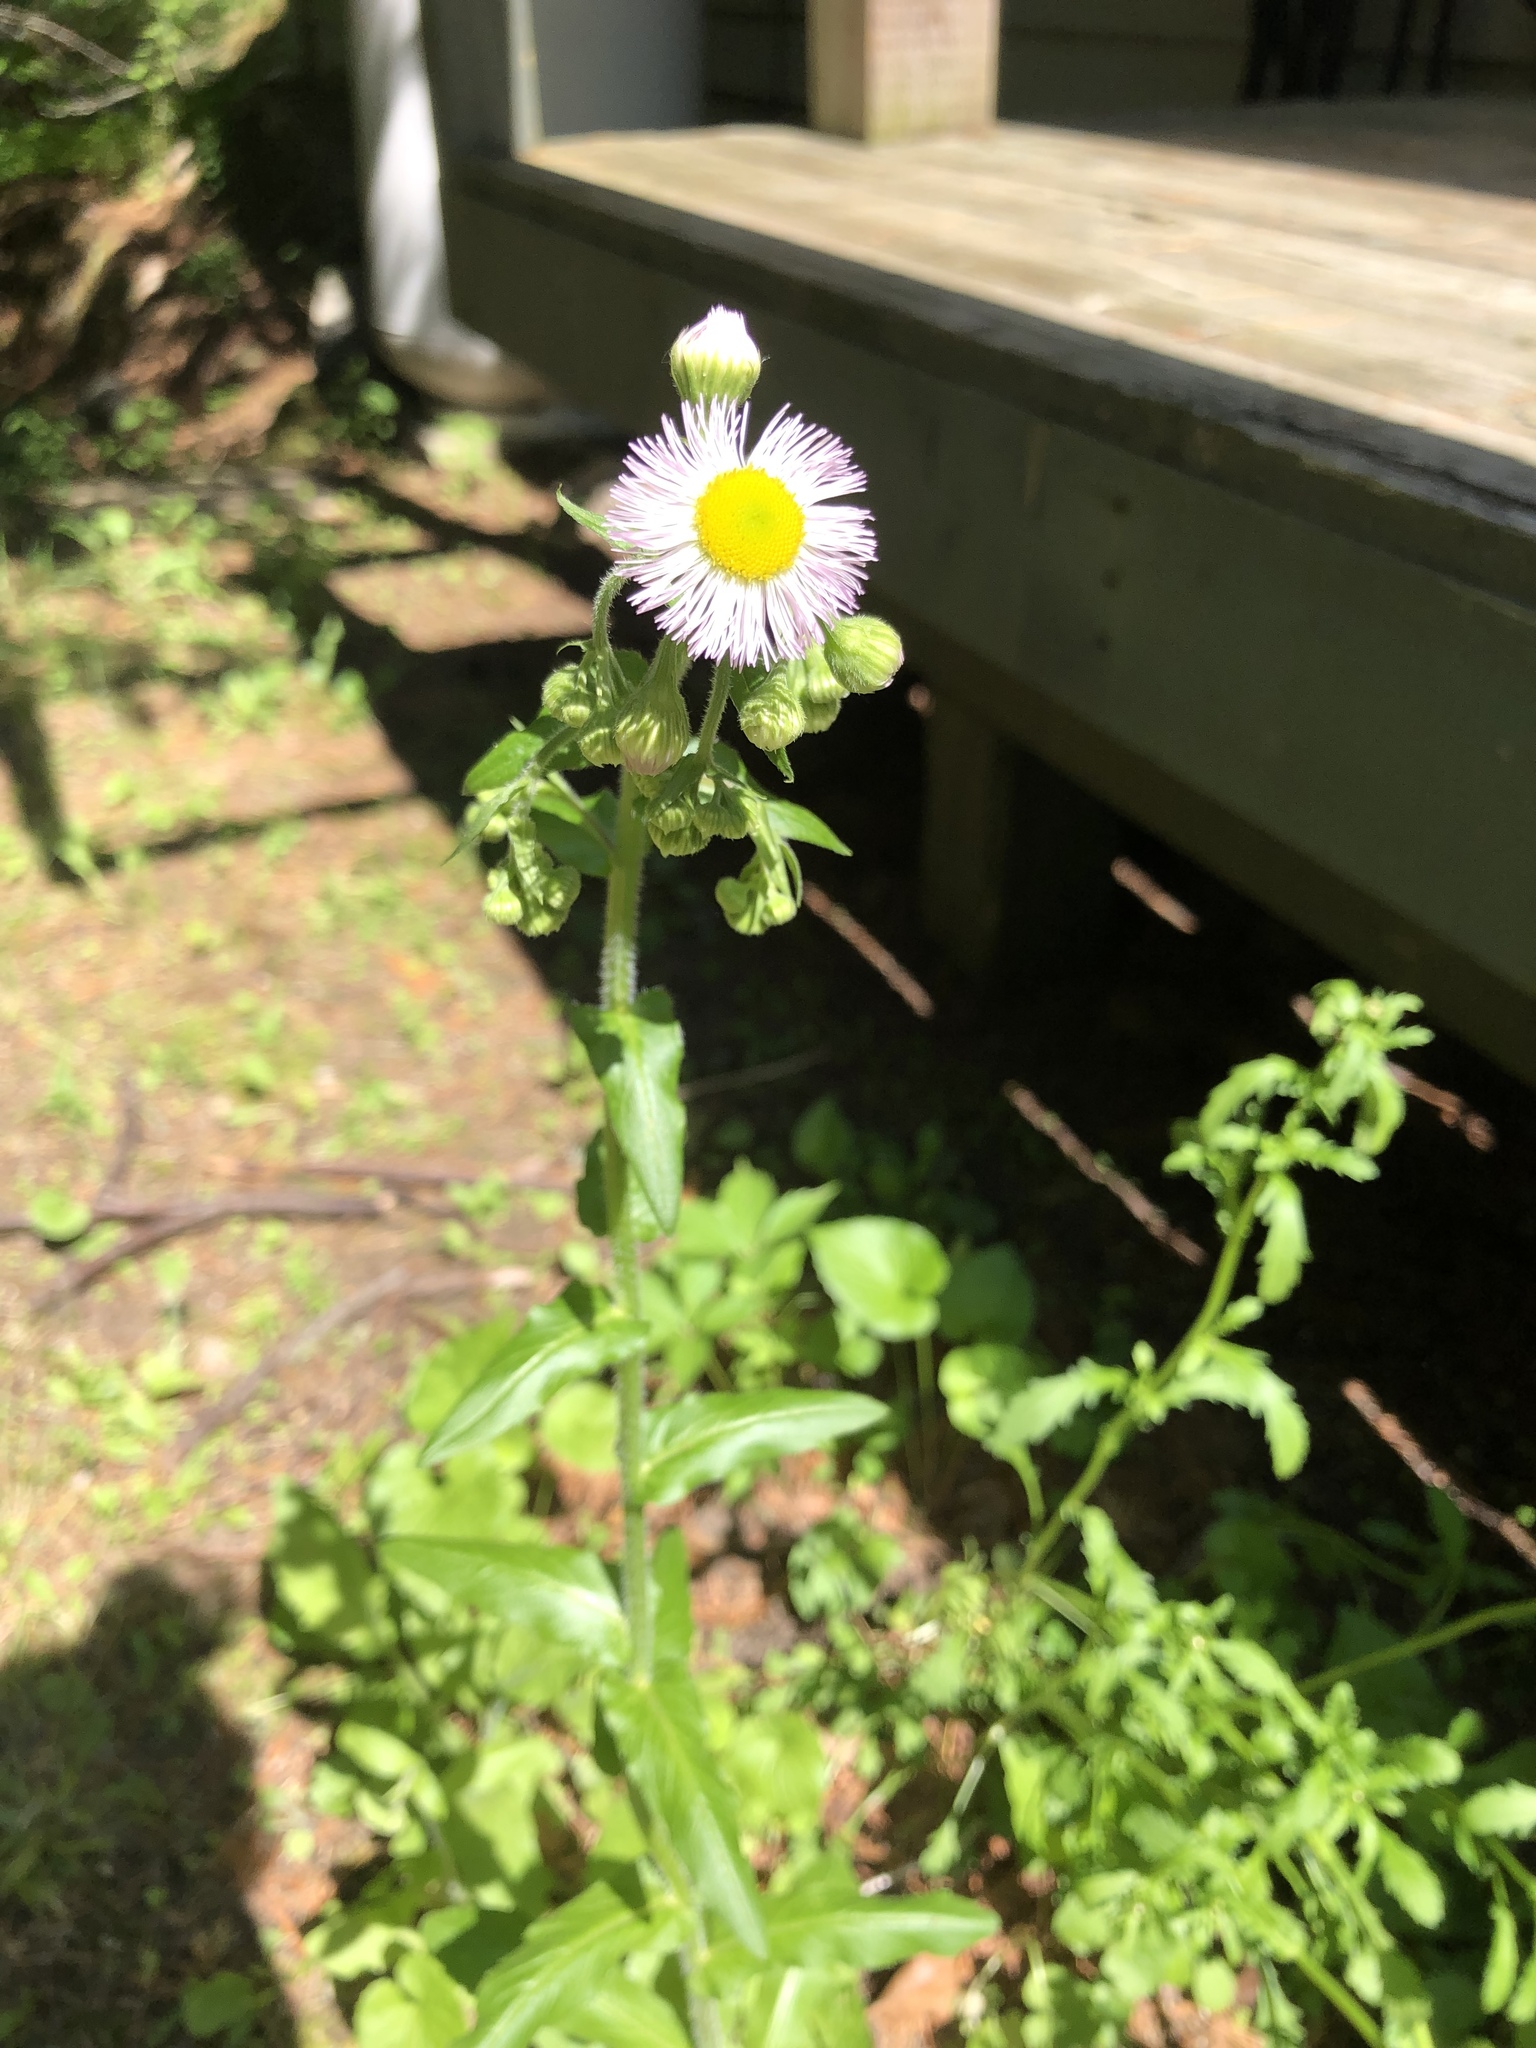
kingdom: Plantae
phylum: Tracheophyta
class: Magnoliopsida
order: Asterales
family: Asteraceae
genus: Erigeron
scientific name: Erigeron philadelphicus
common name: Robin's-plantain
